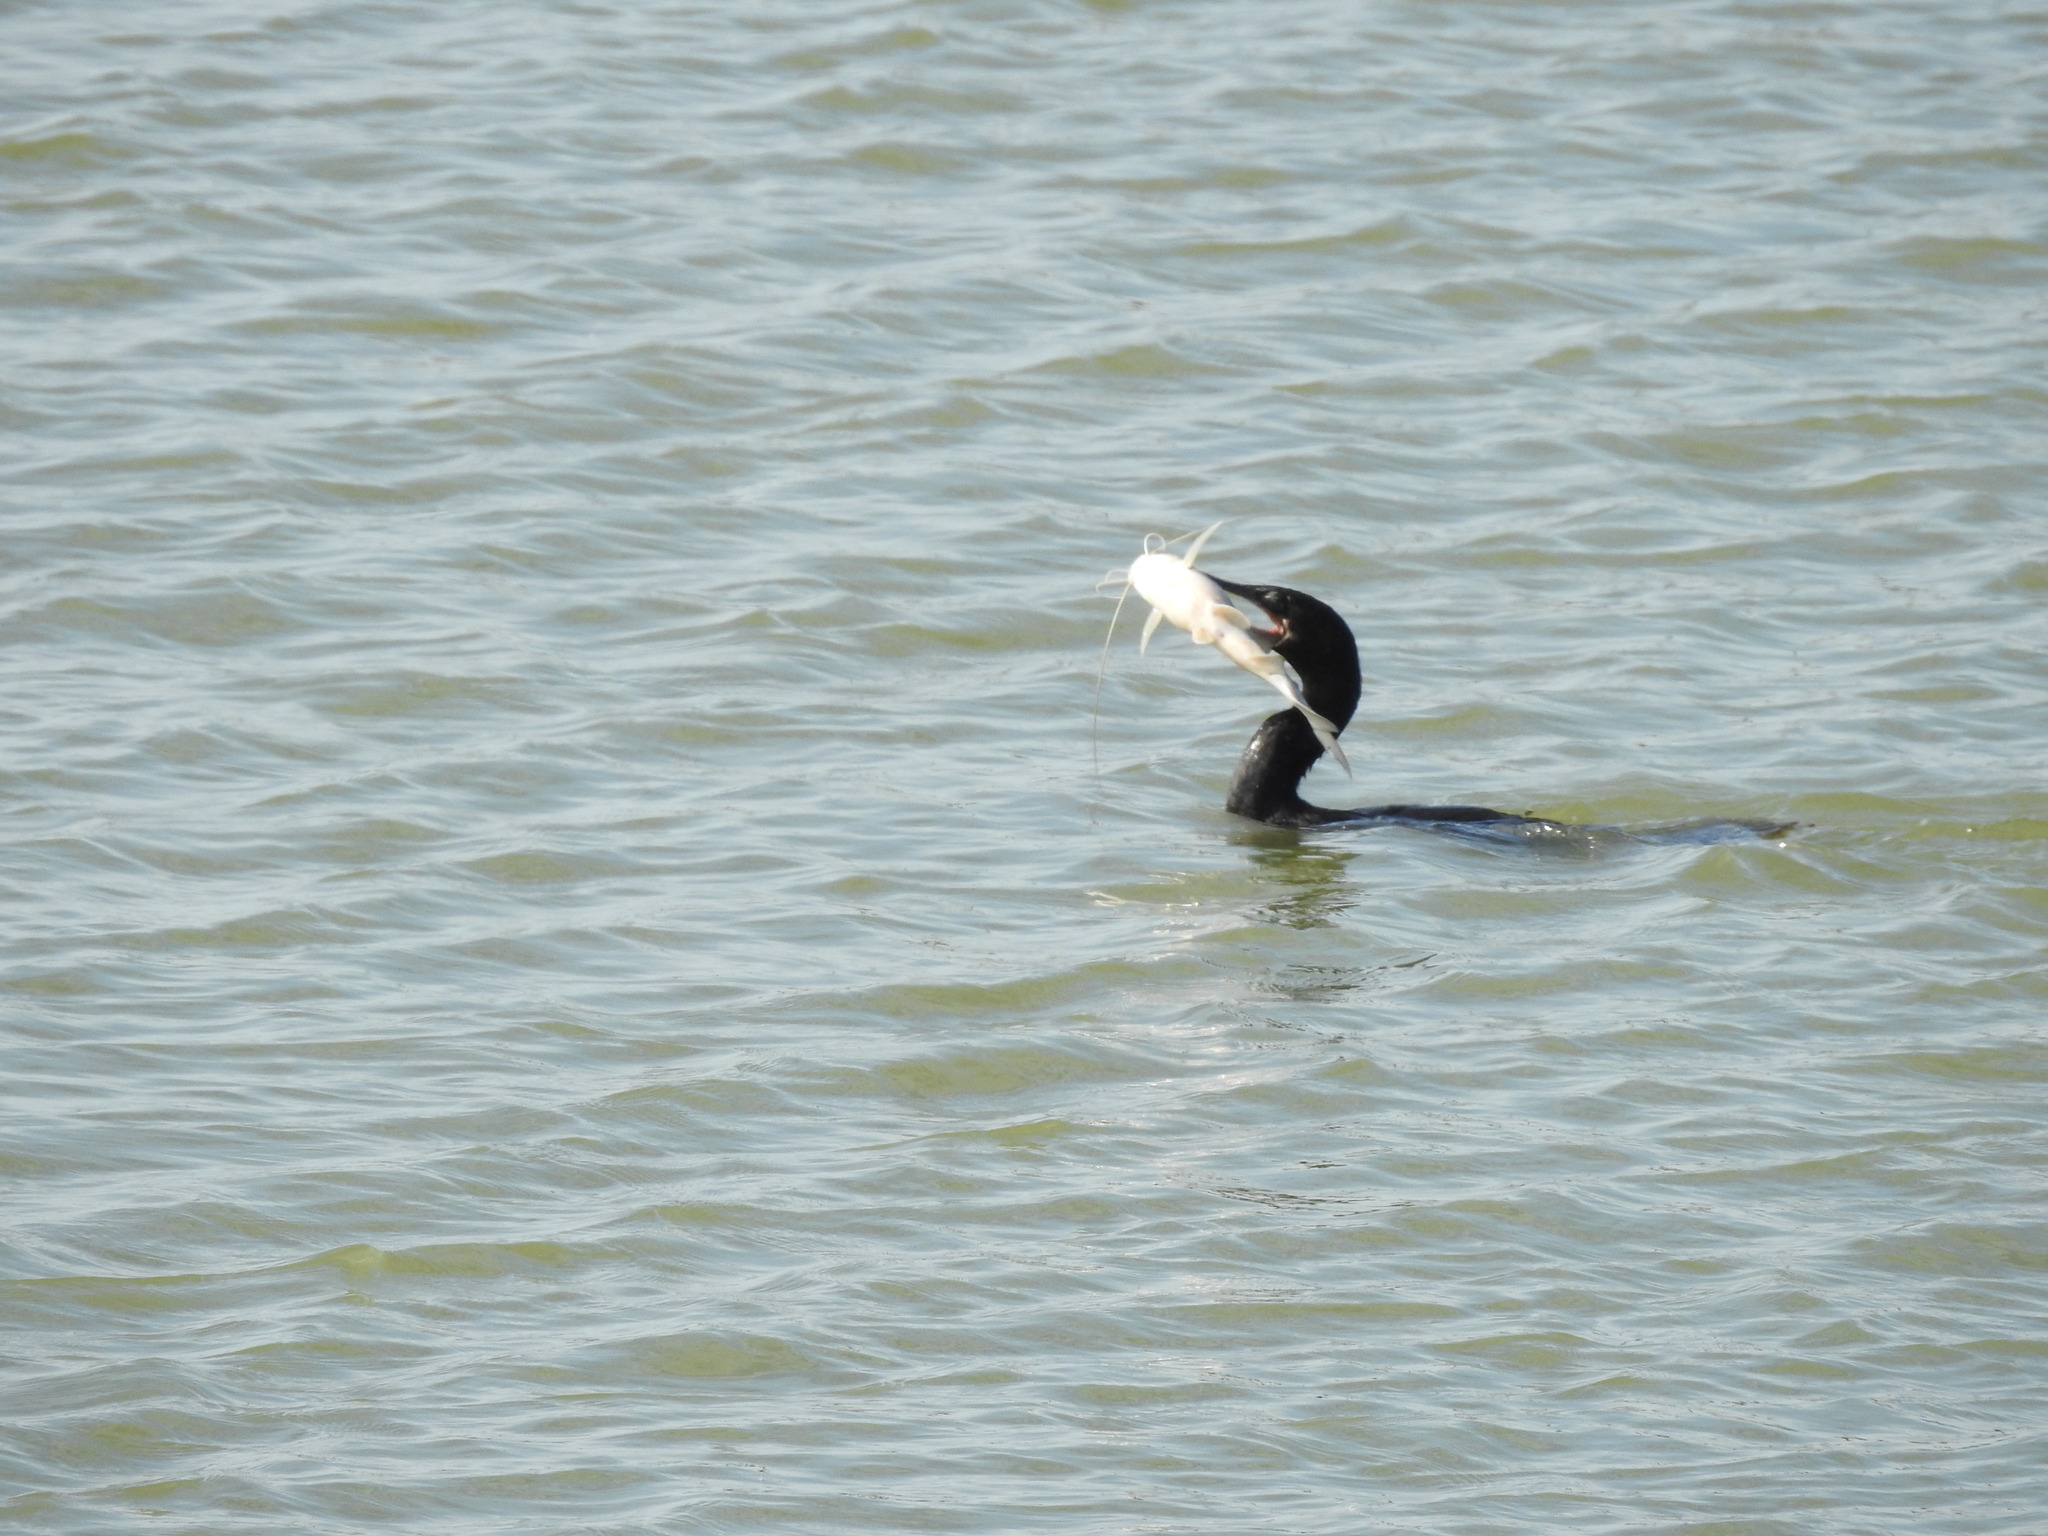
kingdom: Animalia
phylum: Chordata
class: Aves
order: Suliformes
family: Phalacrocoracidae
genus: Phalacrocorax
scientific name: Phalacrocorax brasilianus
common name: Neotropic cormorant
